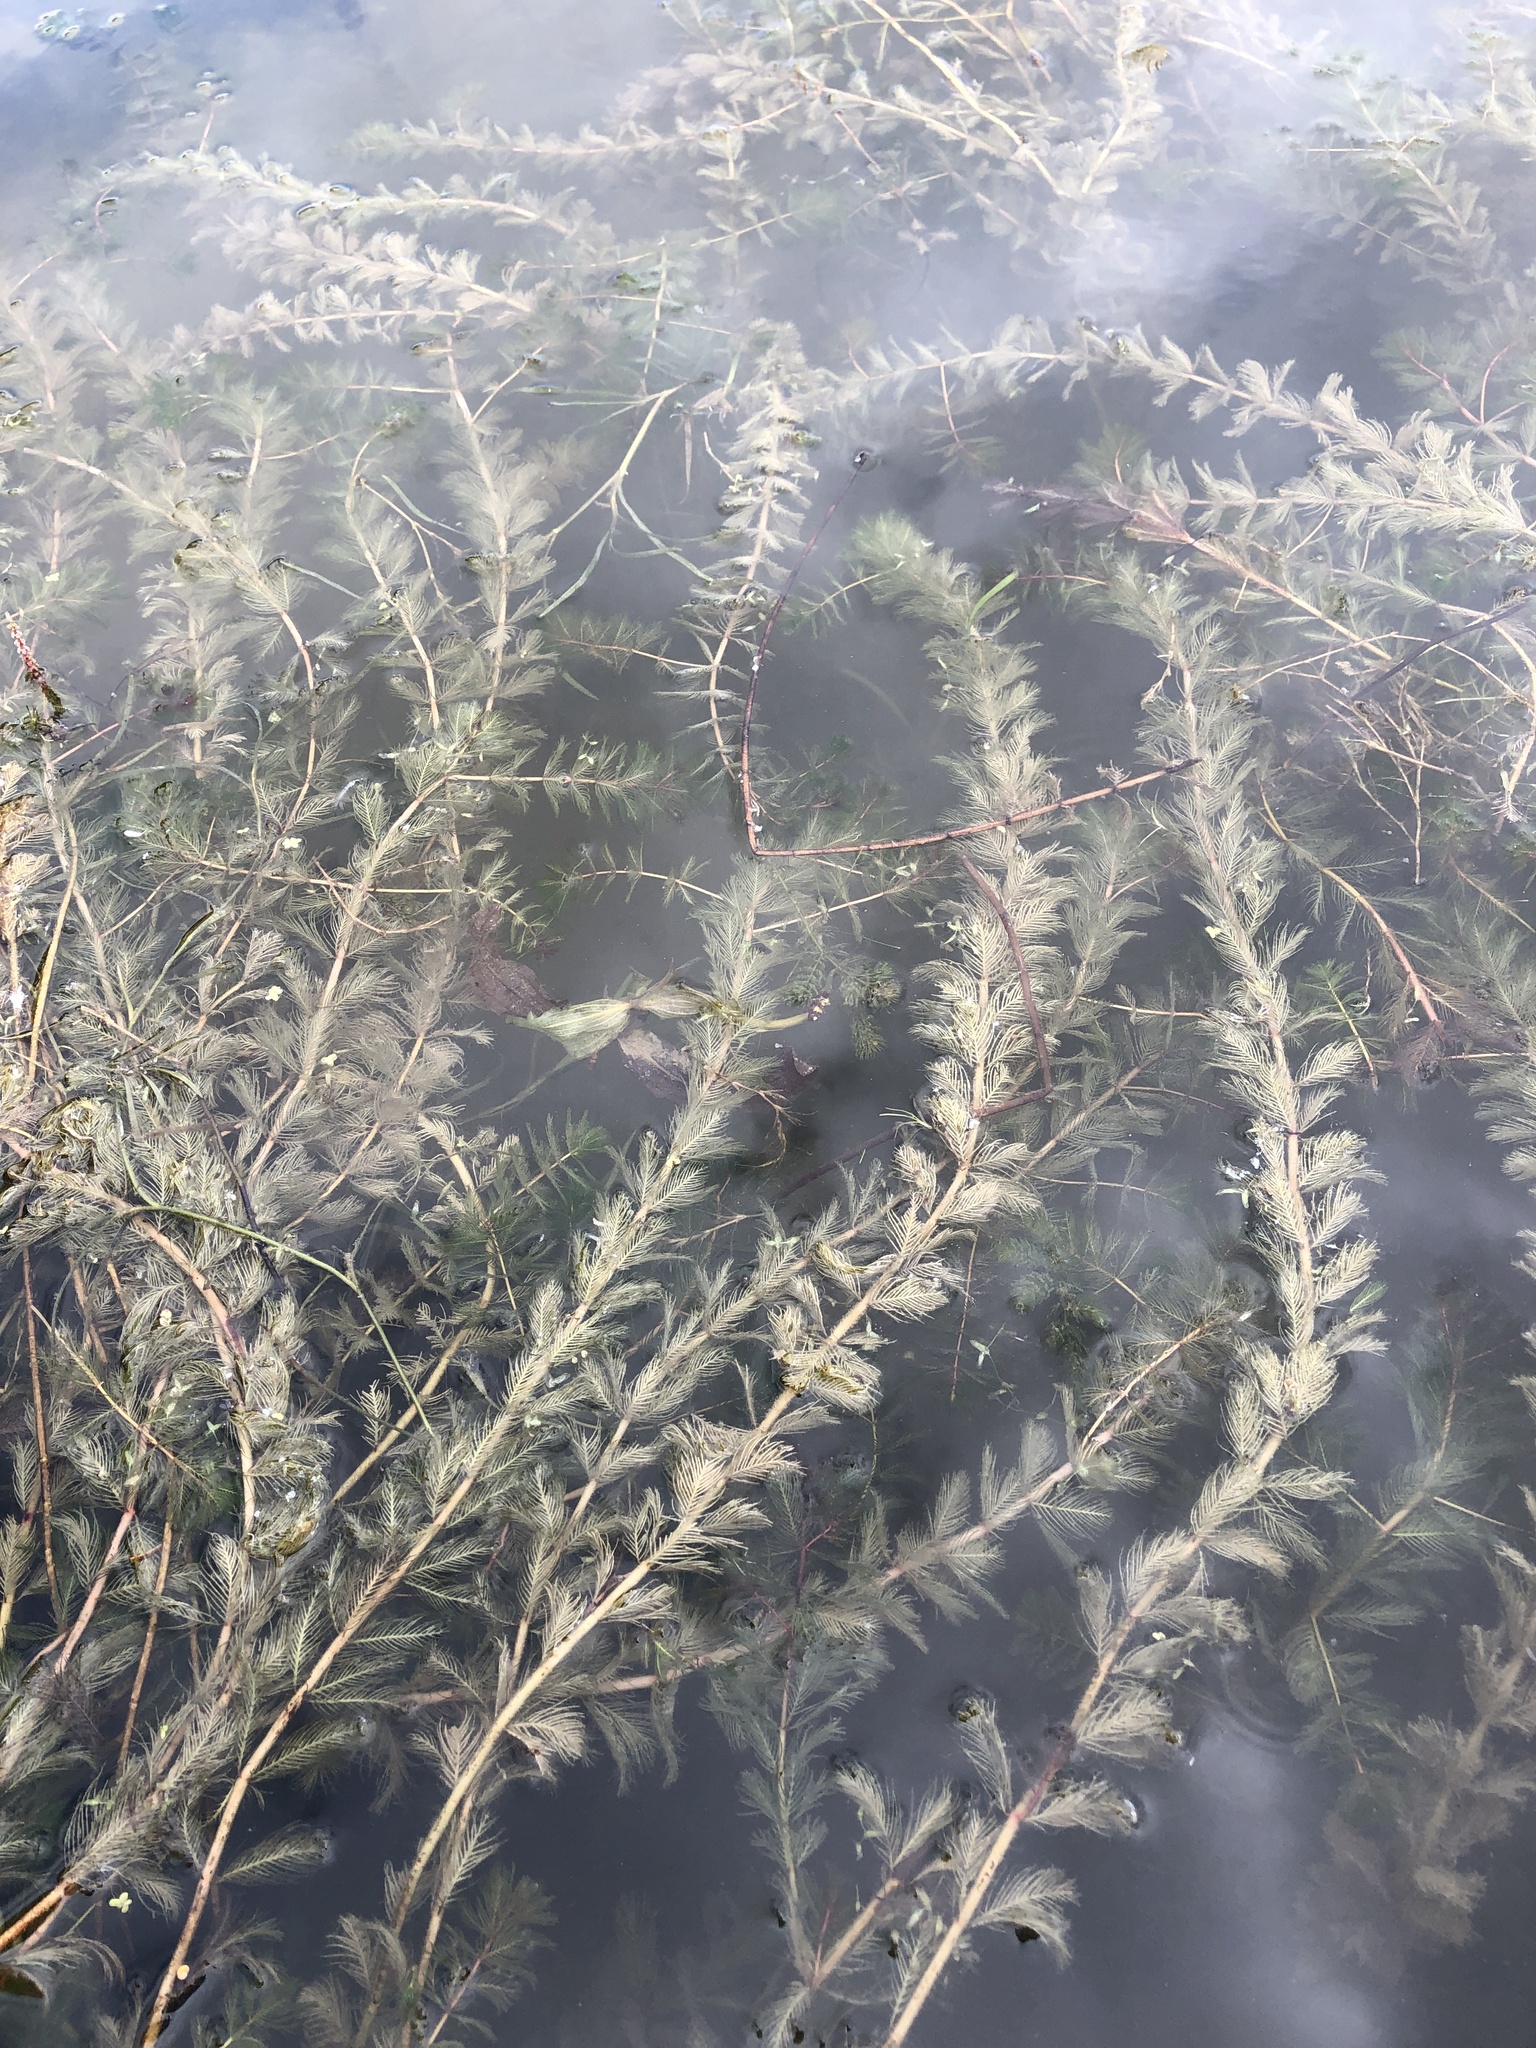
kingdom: Plantae
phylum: Tracheophyta
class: Magnoliopsida
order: Saxifragales
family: Haloragaceae
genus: Myriophyllum
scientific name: Myriophyllum spicatum
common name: Spiked water-milfoil
